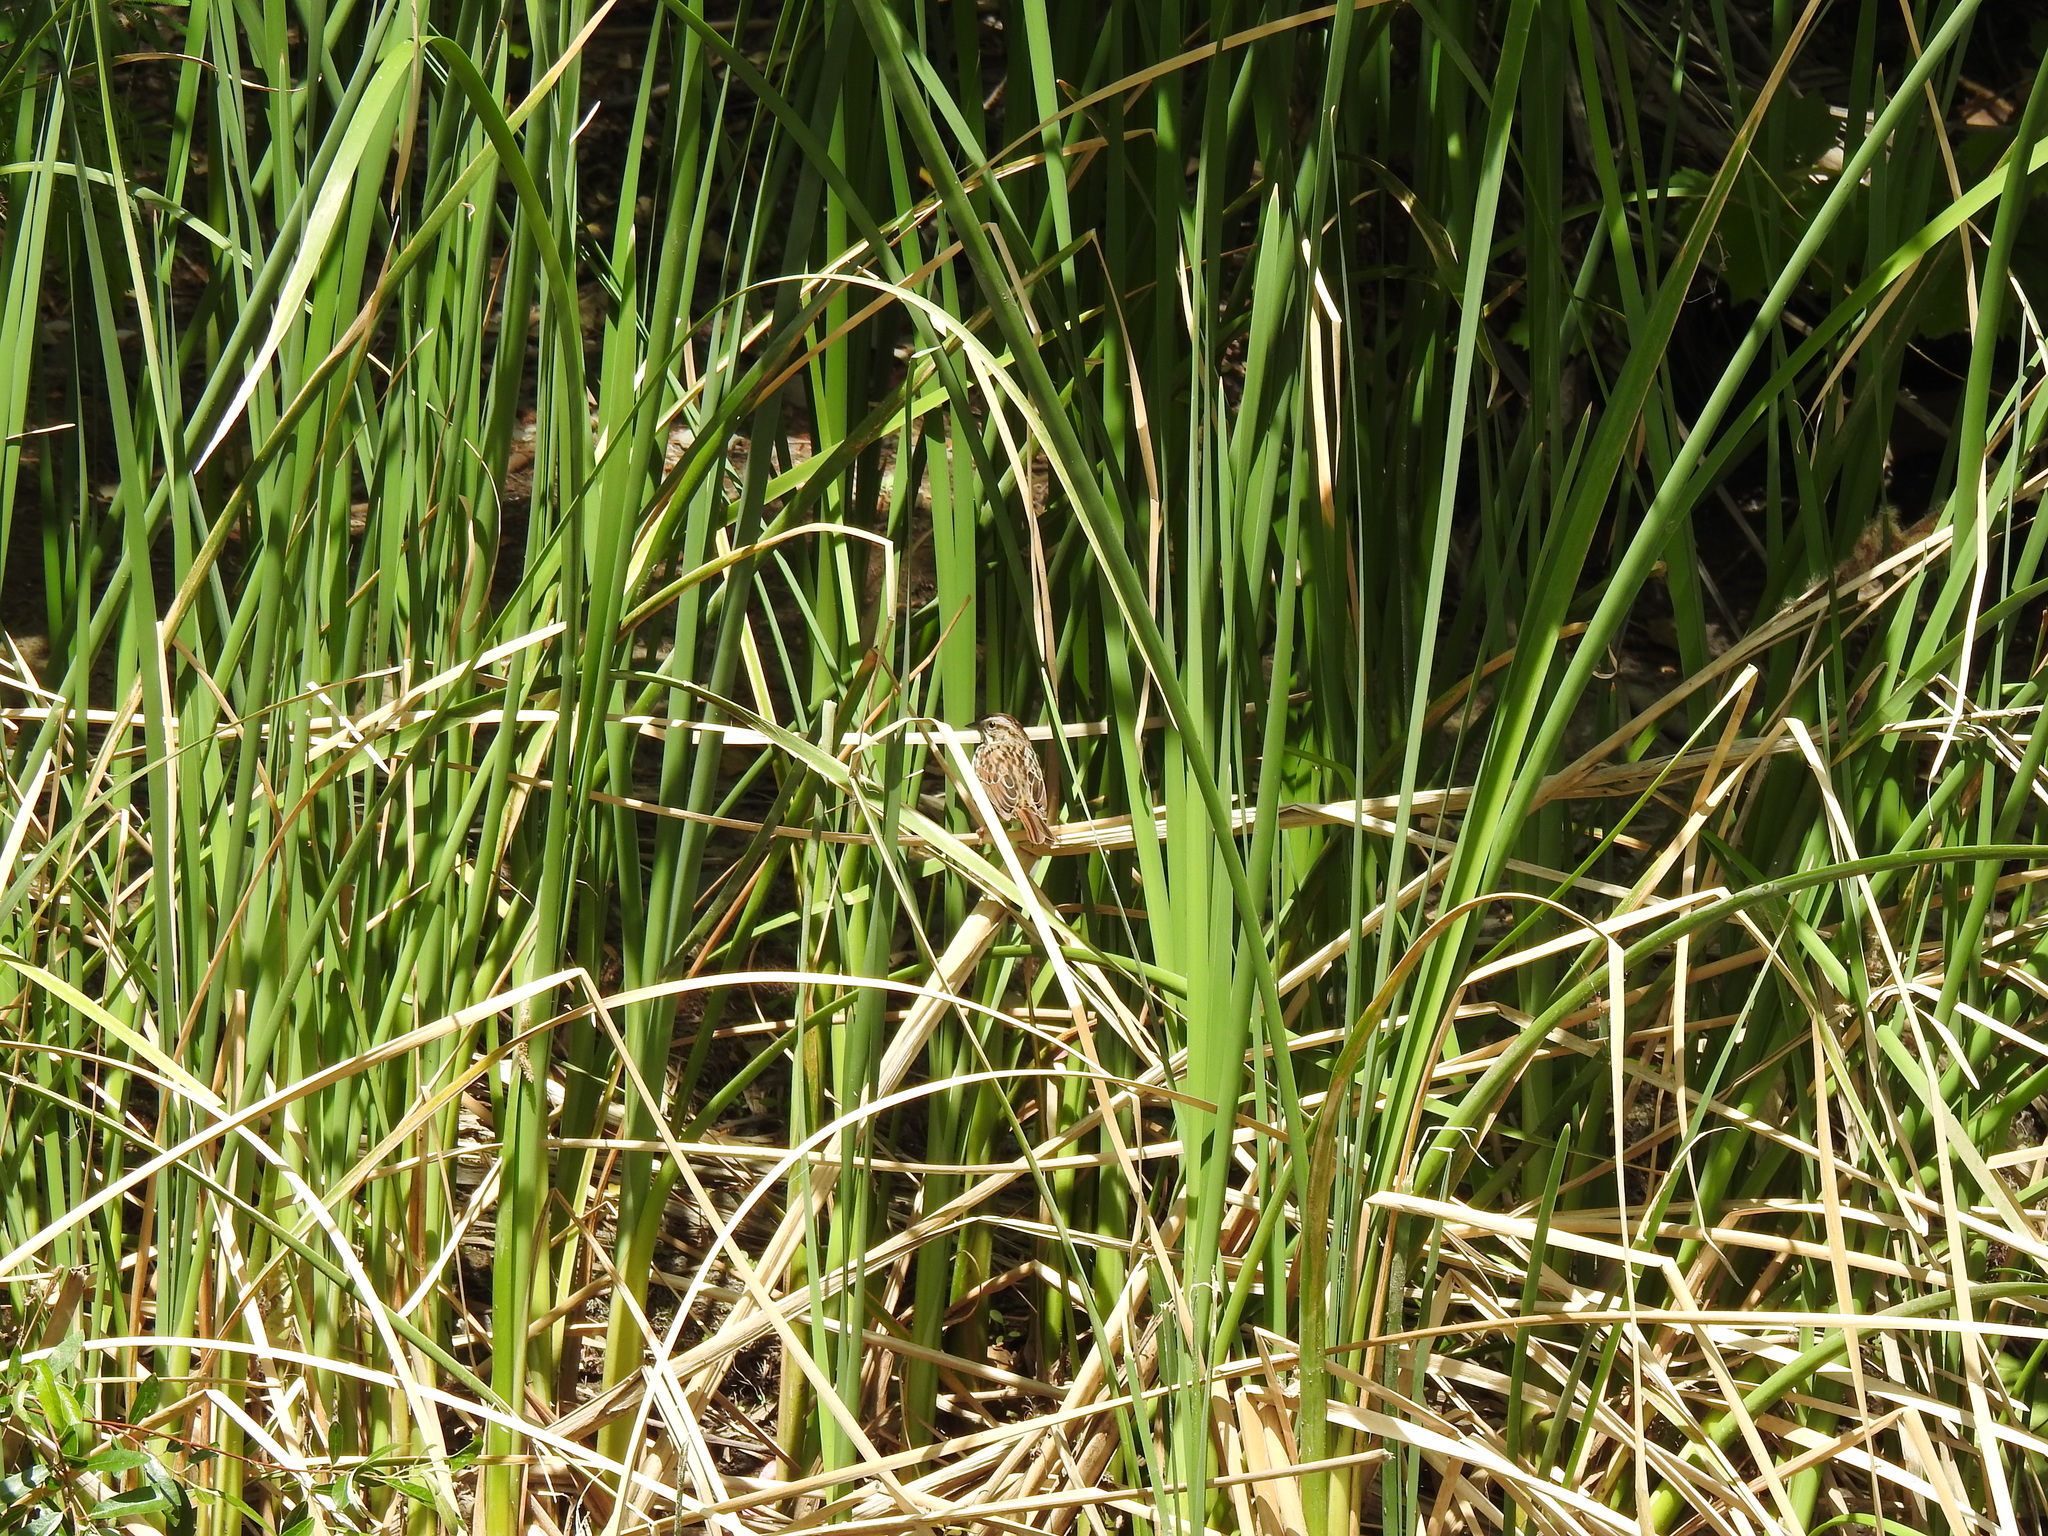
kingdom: Animalia
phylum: Chordata
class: Aves
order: Passeriformes
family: Passerellidae
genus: Melospiza
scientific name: Melospiza melodia
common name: Song sparrow
